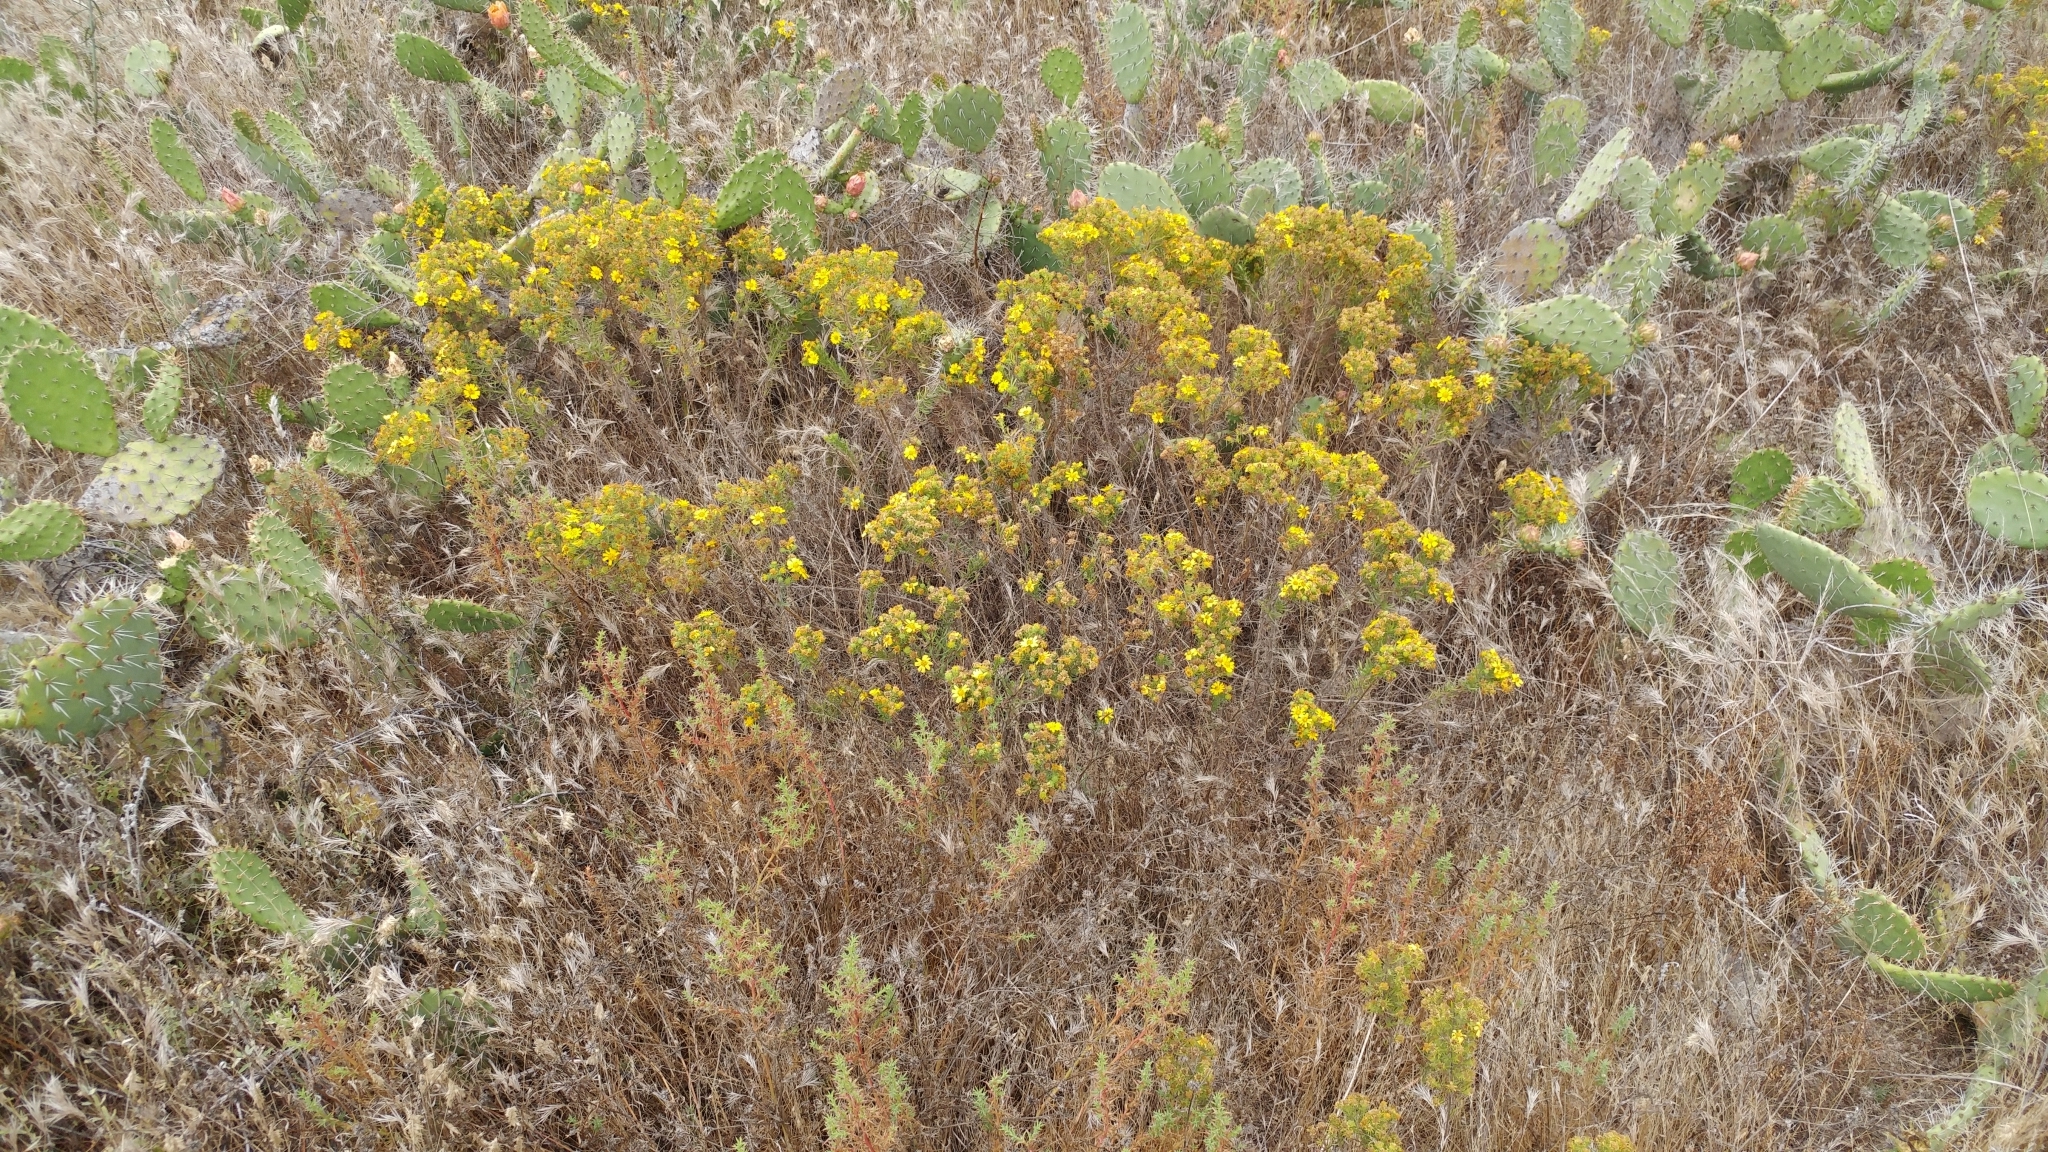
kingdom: Plantae
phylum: Tracheophyta
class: Magnoliopsida
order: Asterales
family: Asteraceae
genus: Deinandra
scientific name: Deinandra clementina
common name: Island tarplant
